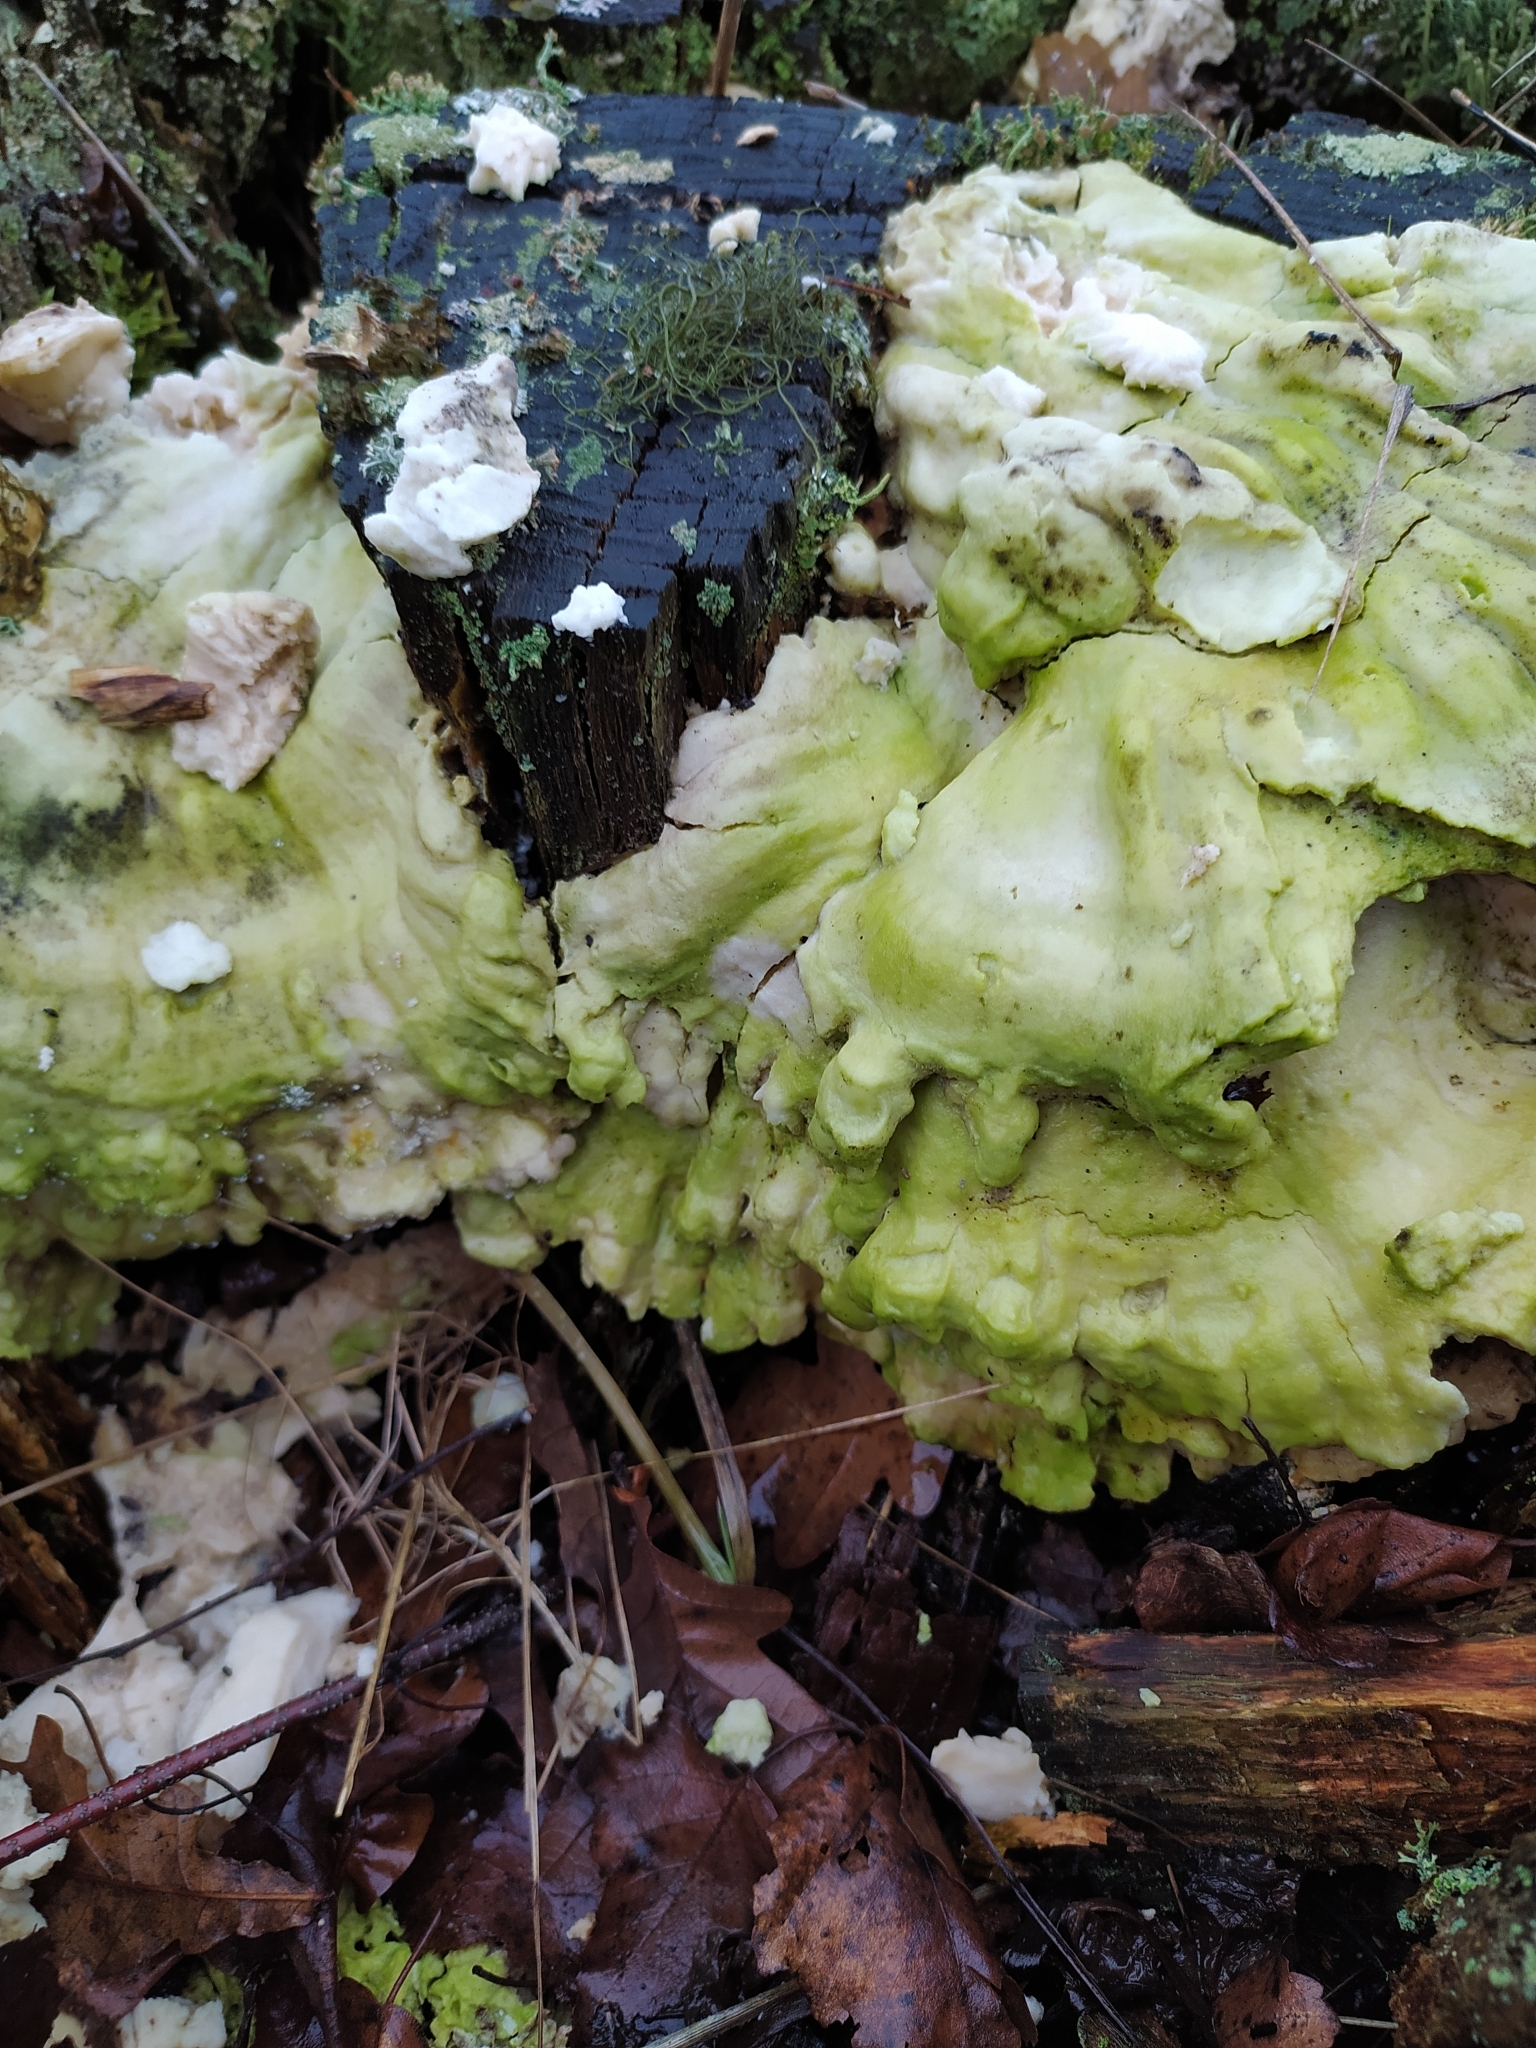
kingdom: Fungi
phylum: Basidiomycota
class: Agaricomycetes
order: Polyporales
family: Laetiporaceae
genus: Laetiporus
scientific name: Laetiporus sulphureus
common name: Chicken of the woods
